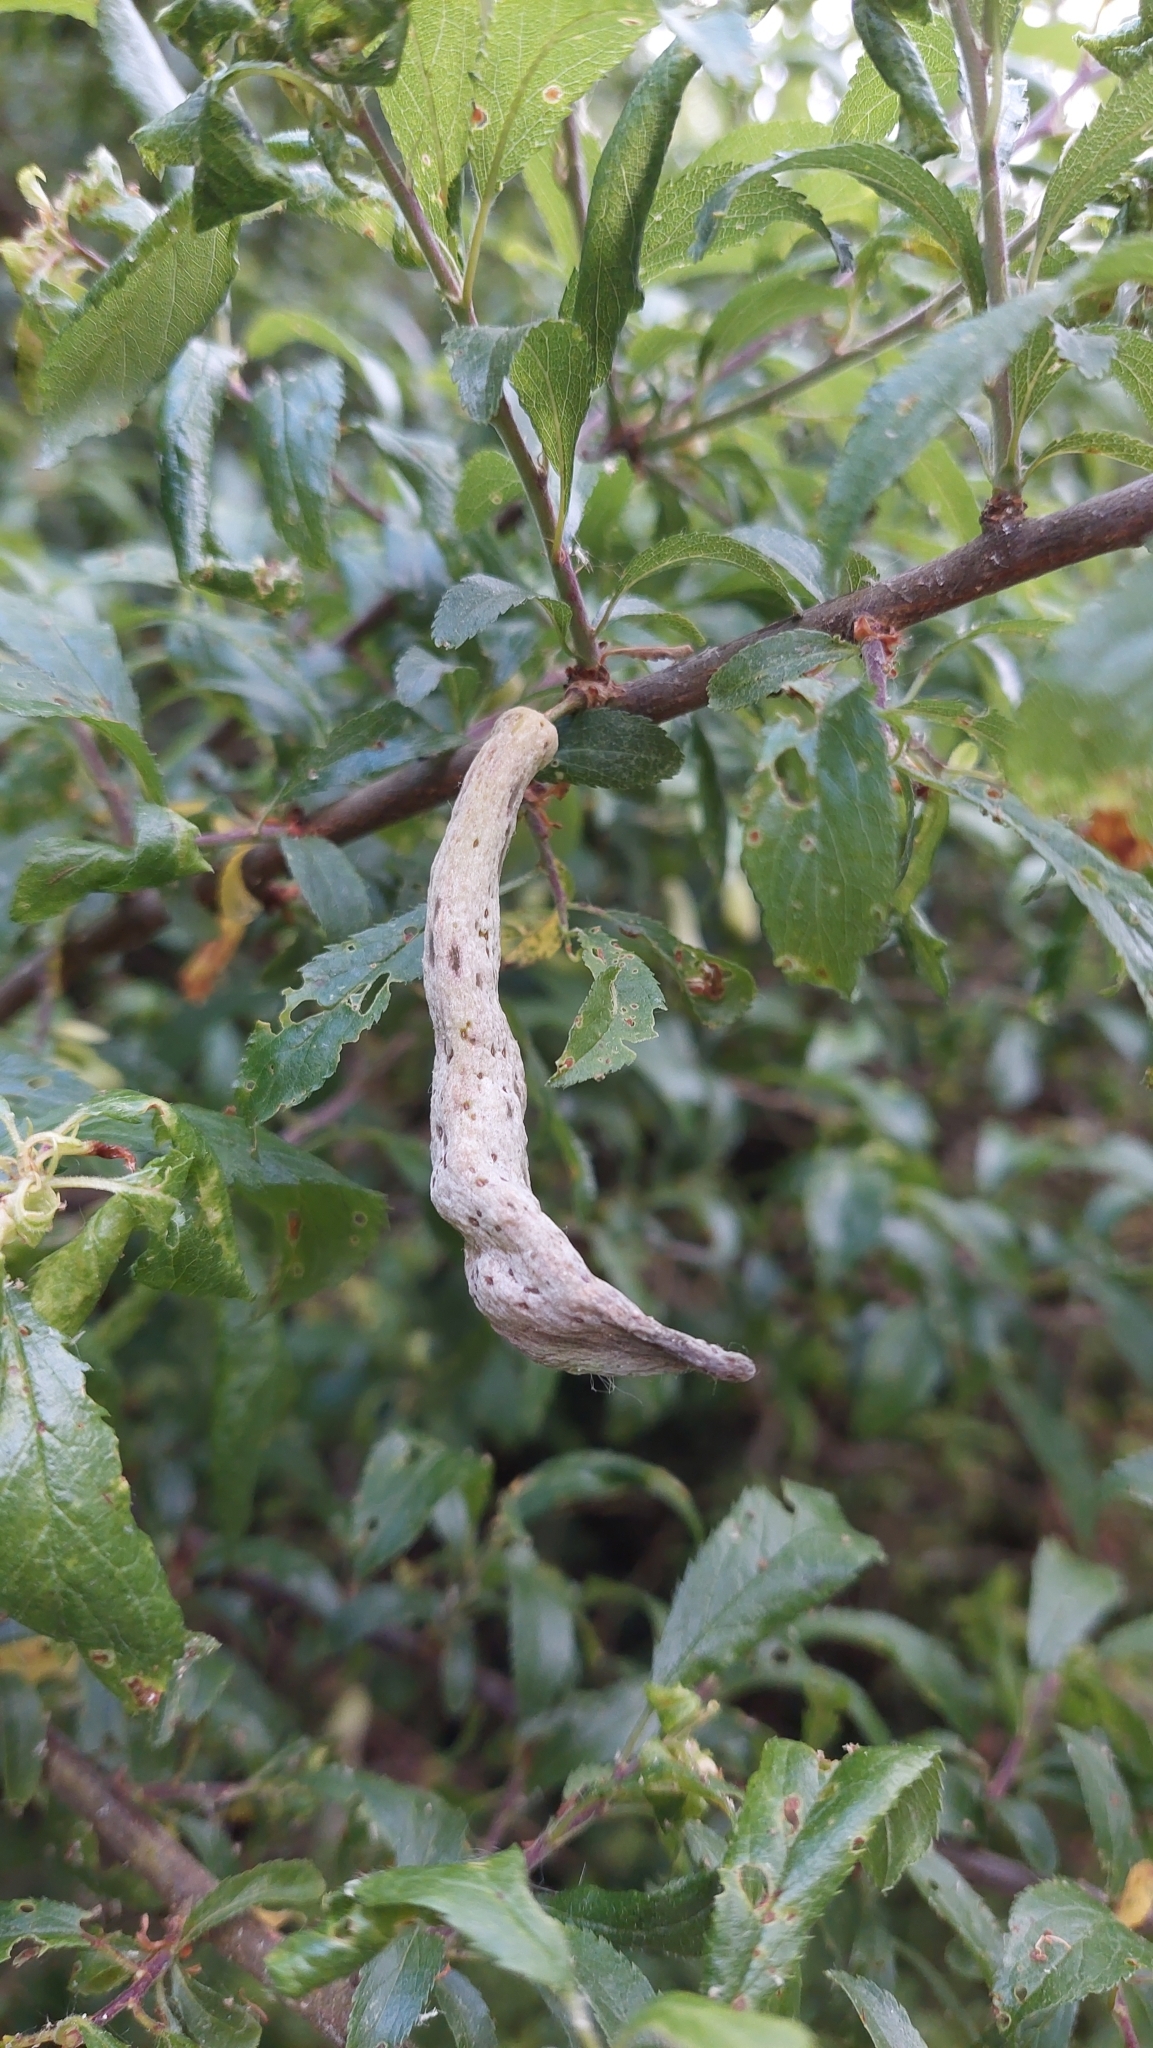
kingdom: Fungi
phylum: Ascomycota
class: Taphrinomycetes
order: Taphrinales
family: Taphrinaceae
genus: Taphrina
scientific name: Taphrina pruni
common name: Pocket plum
